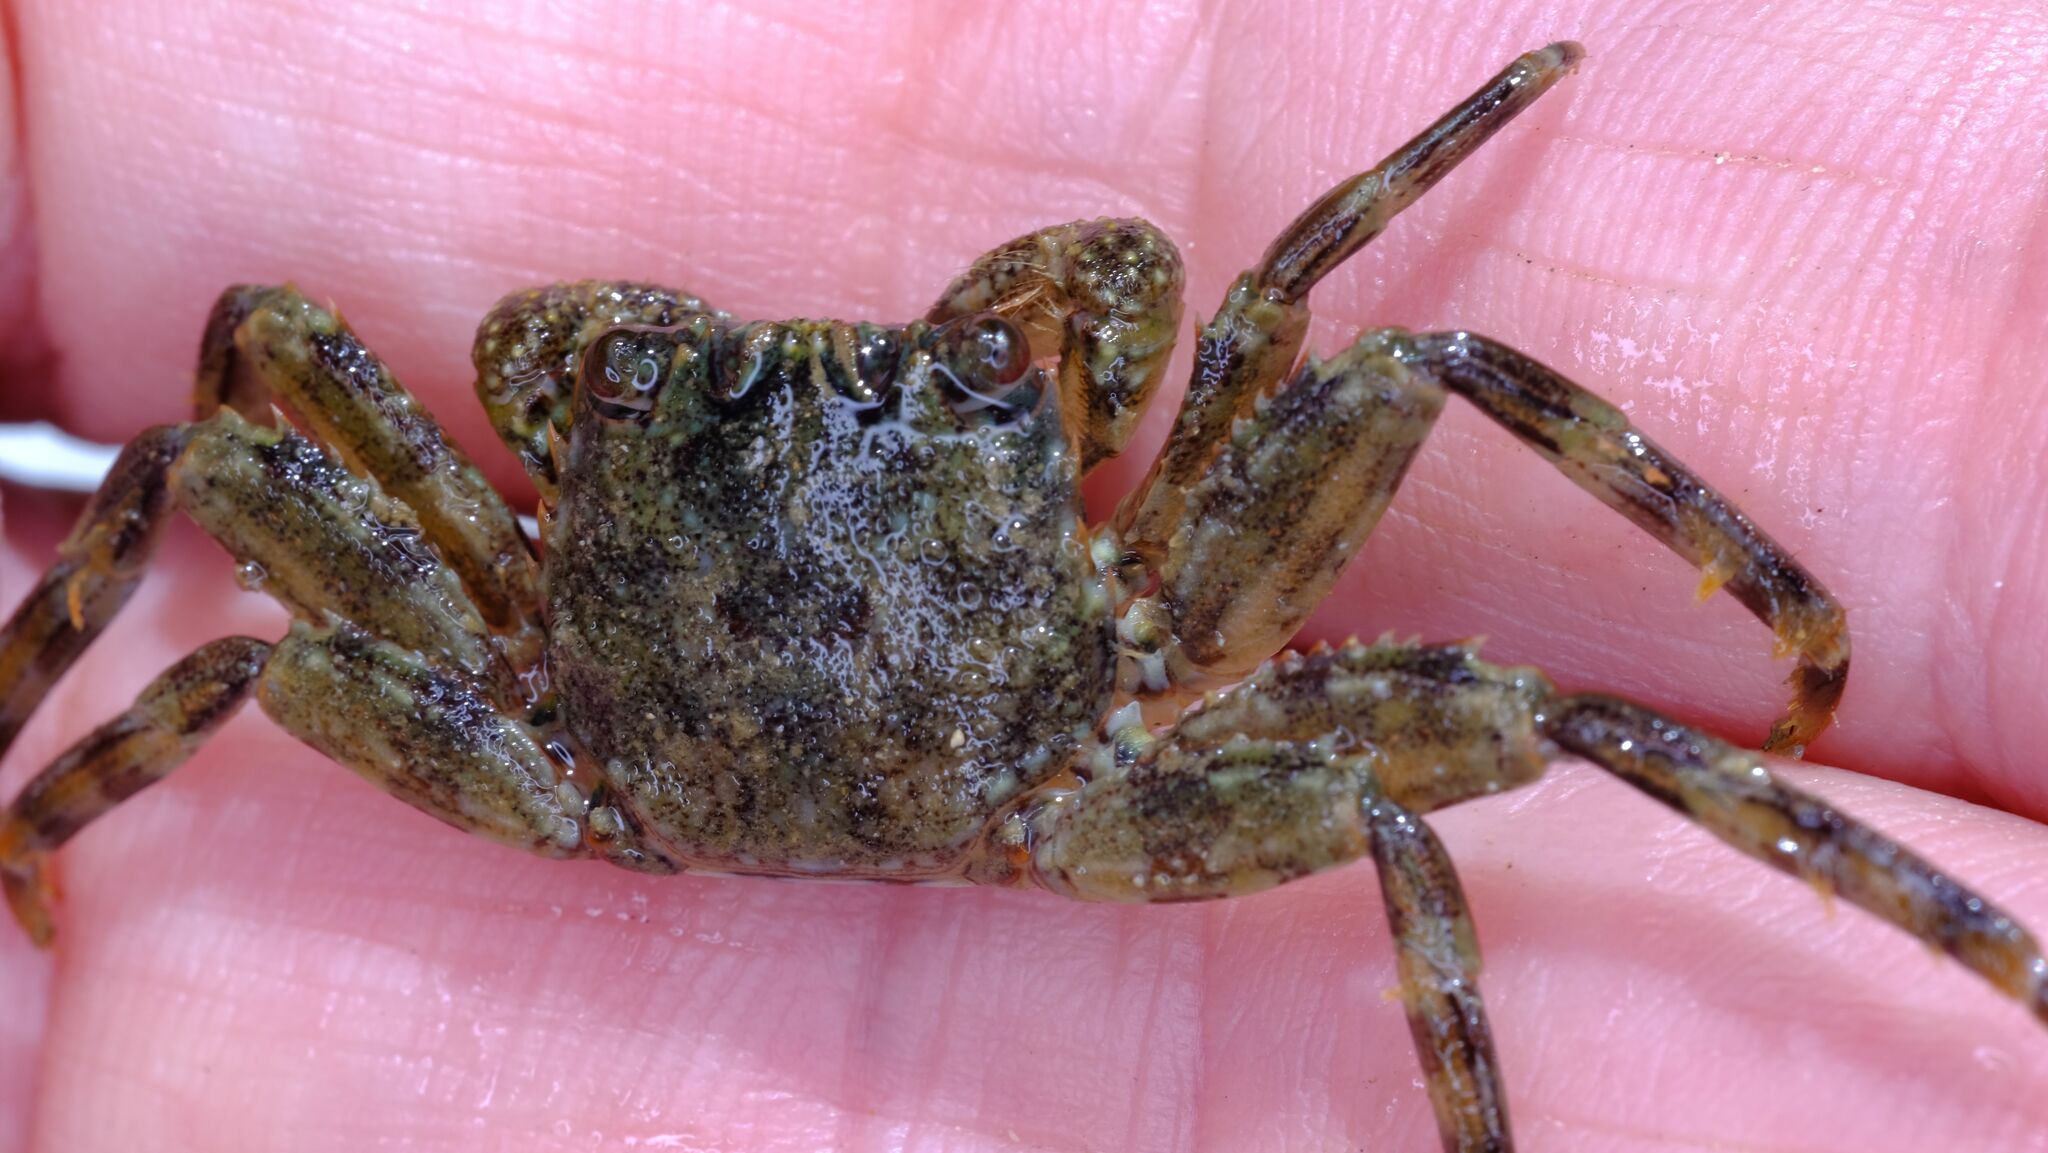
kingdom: Animalia
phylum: Arthropoda
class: Malacostraca
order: Decapoda
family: Plagusiidae
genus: Guinusia
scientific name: Guinusia chabrus
